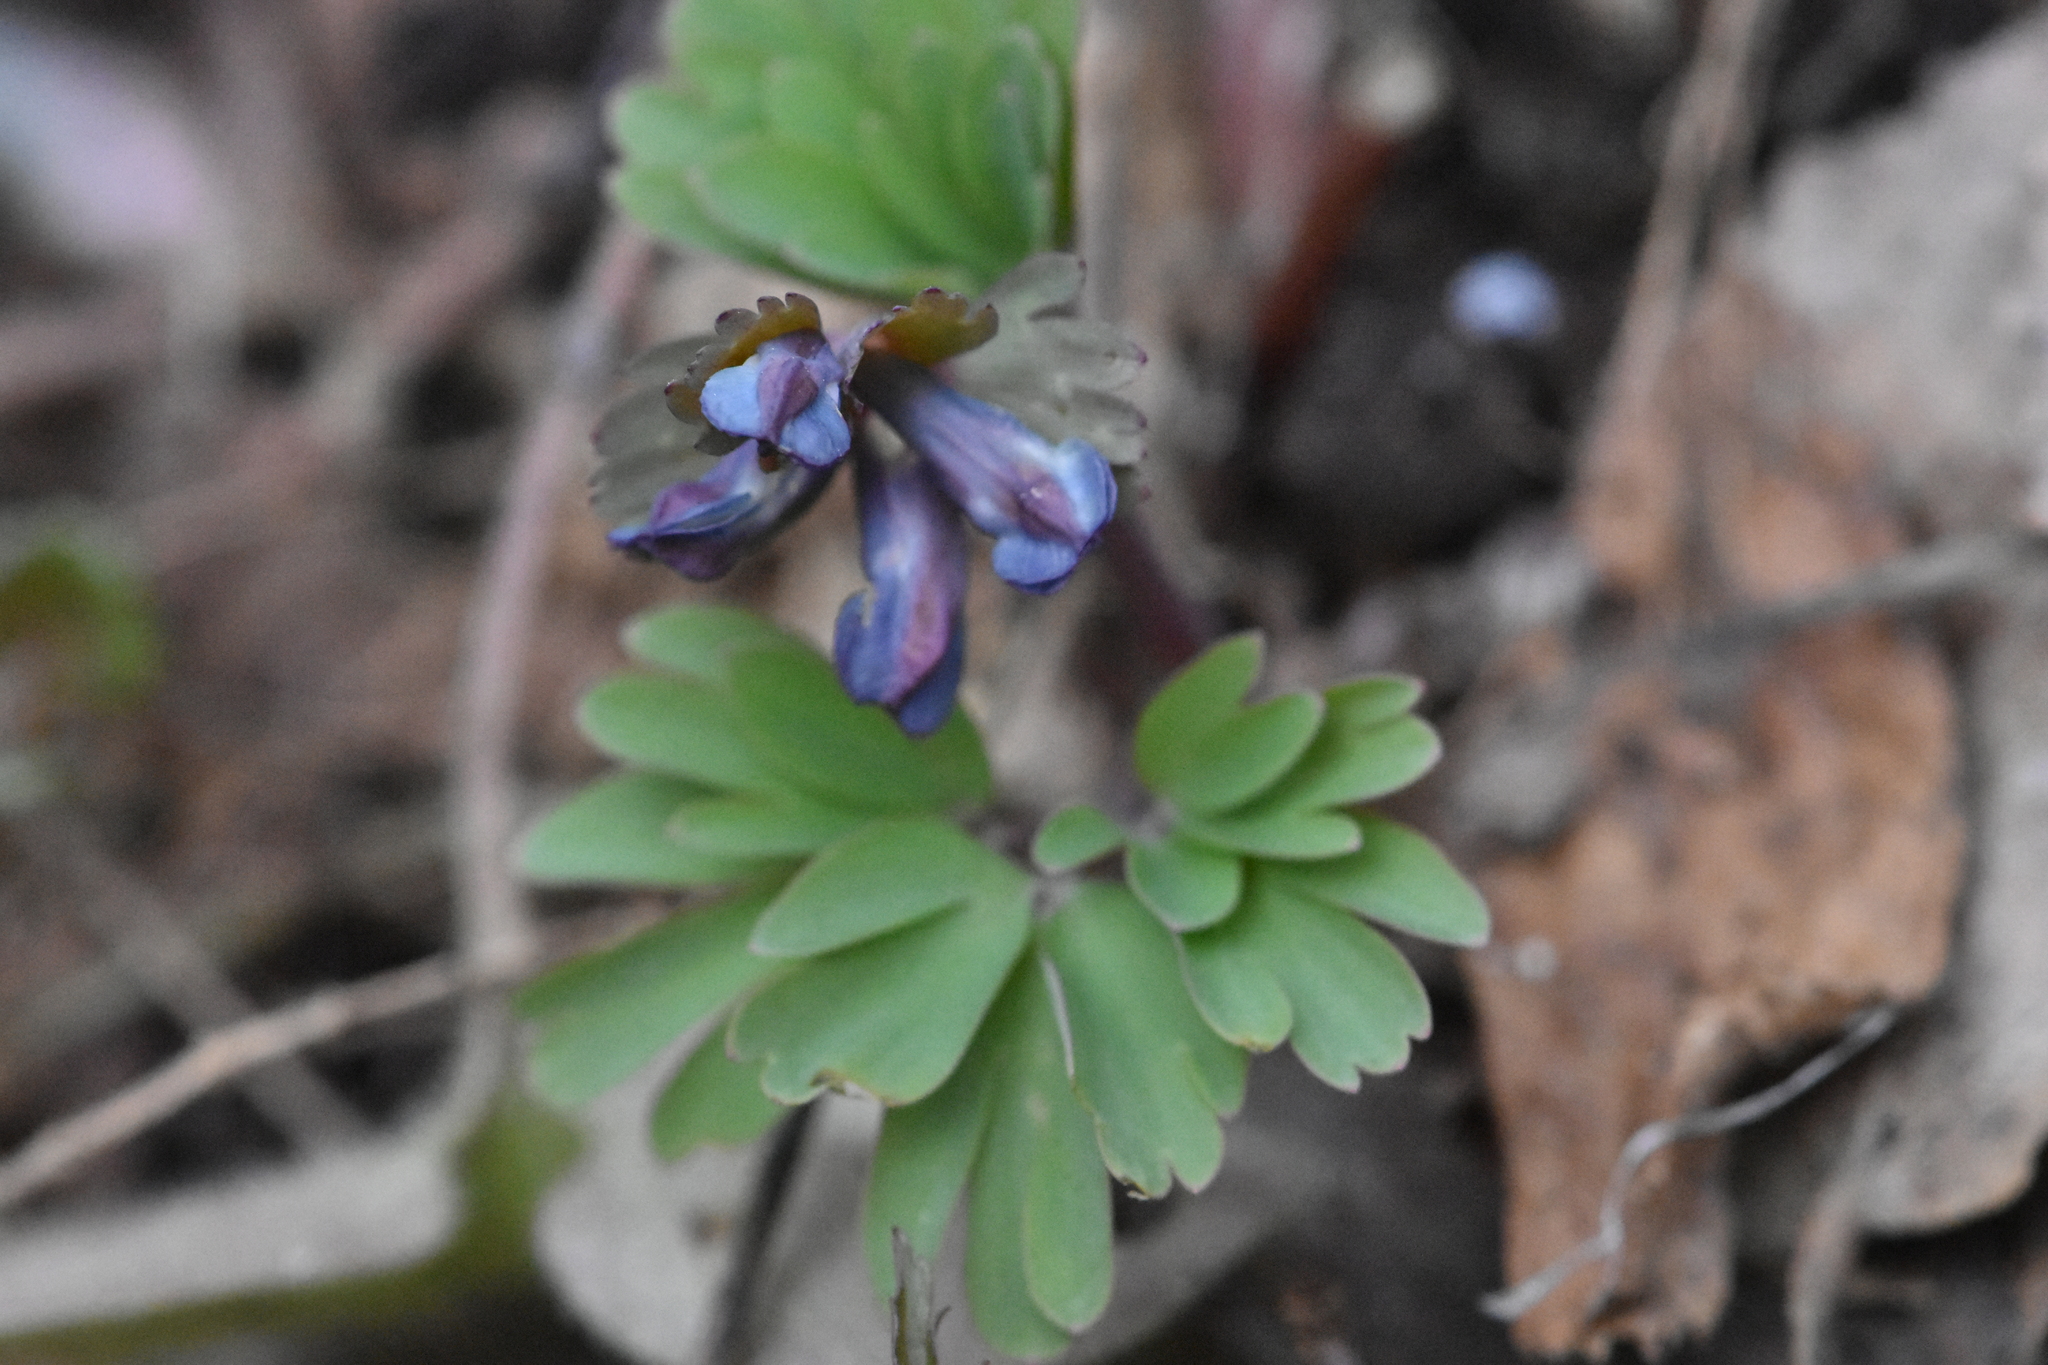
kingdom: Plantae
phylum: Tracheophyta
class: Magnoliopsida
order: Ranunculales
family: Papaveraceae
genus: Corydalis
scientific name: Corydalis solida
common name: Bird-in-a-bush
